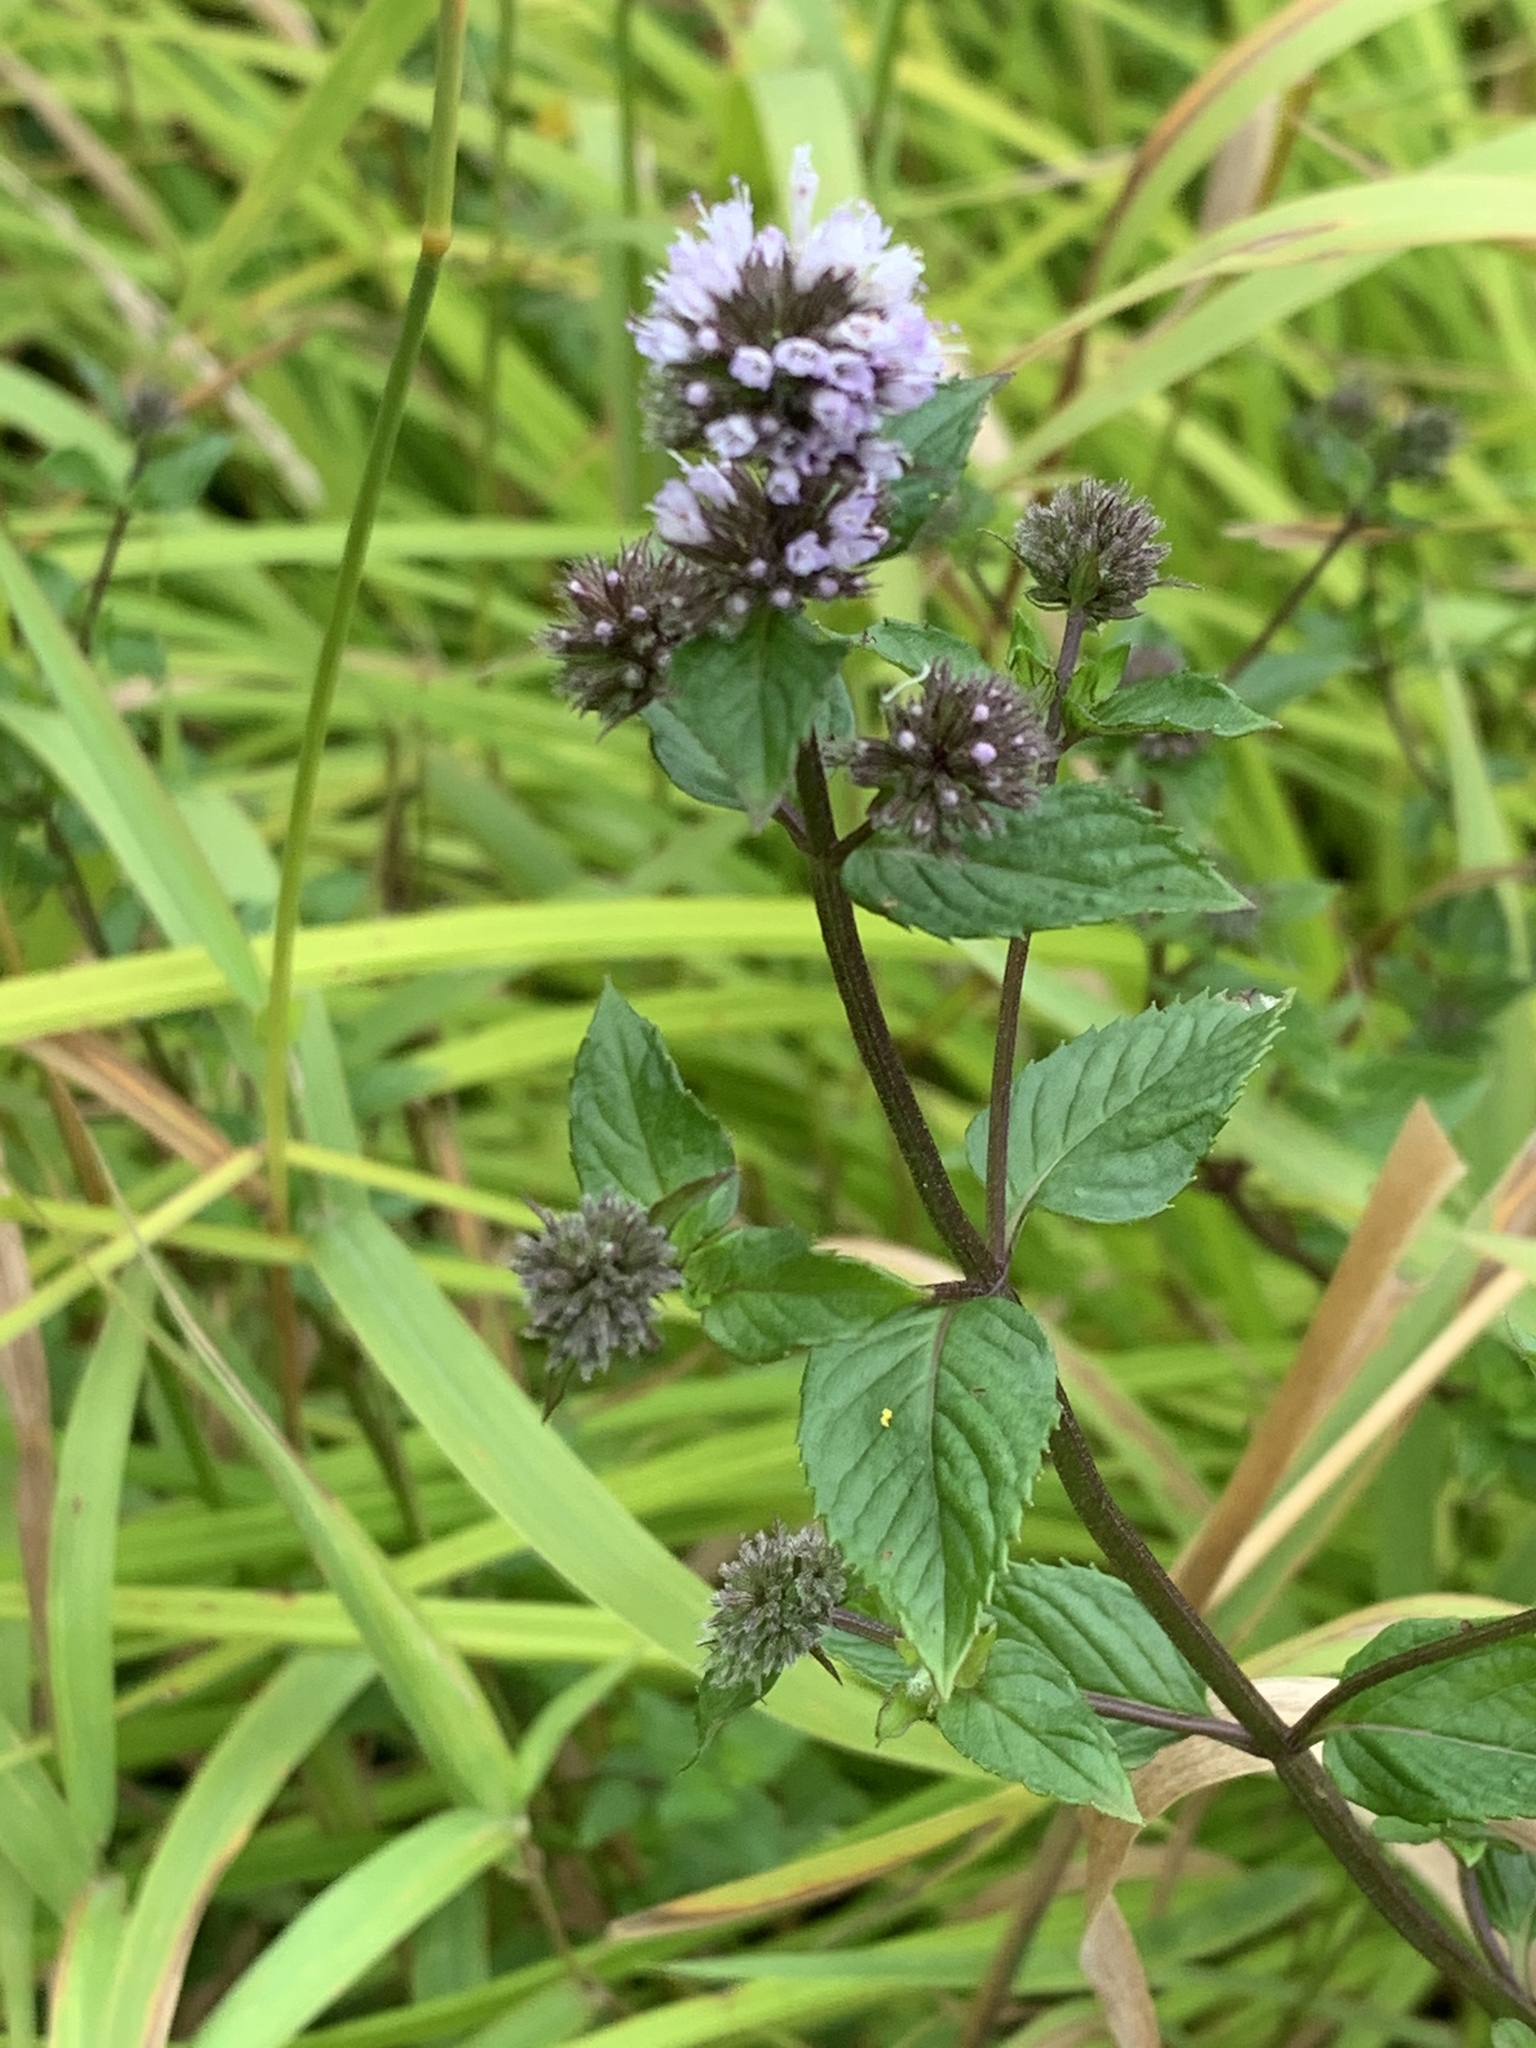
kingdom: Plantae
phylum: Tracheophyta
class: Magnoliopsida
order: Lamiales
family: Lamiaceae
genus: Mentha
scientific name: Mentha piperita
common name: Peppermint
